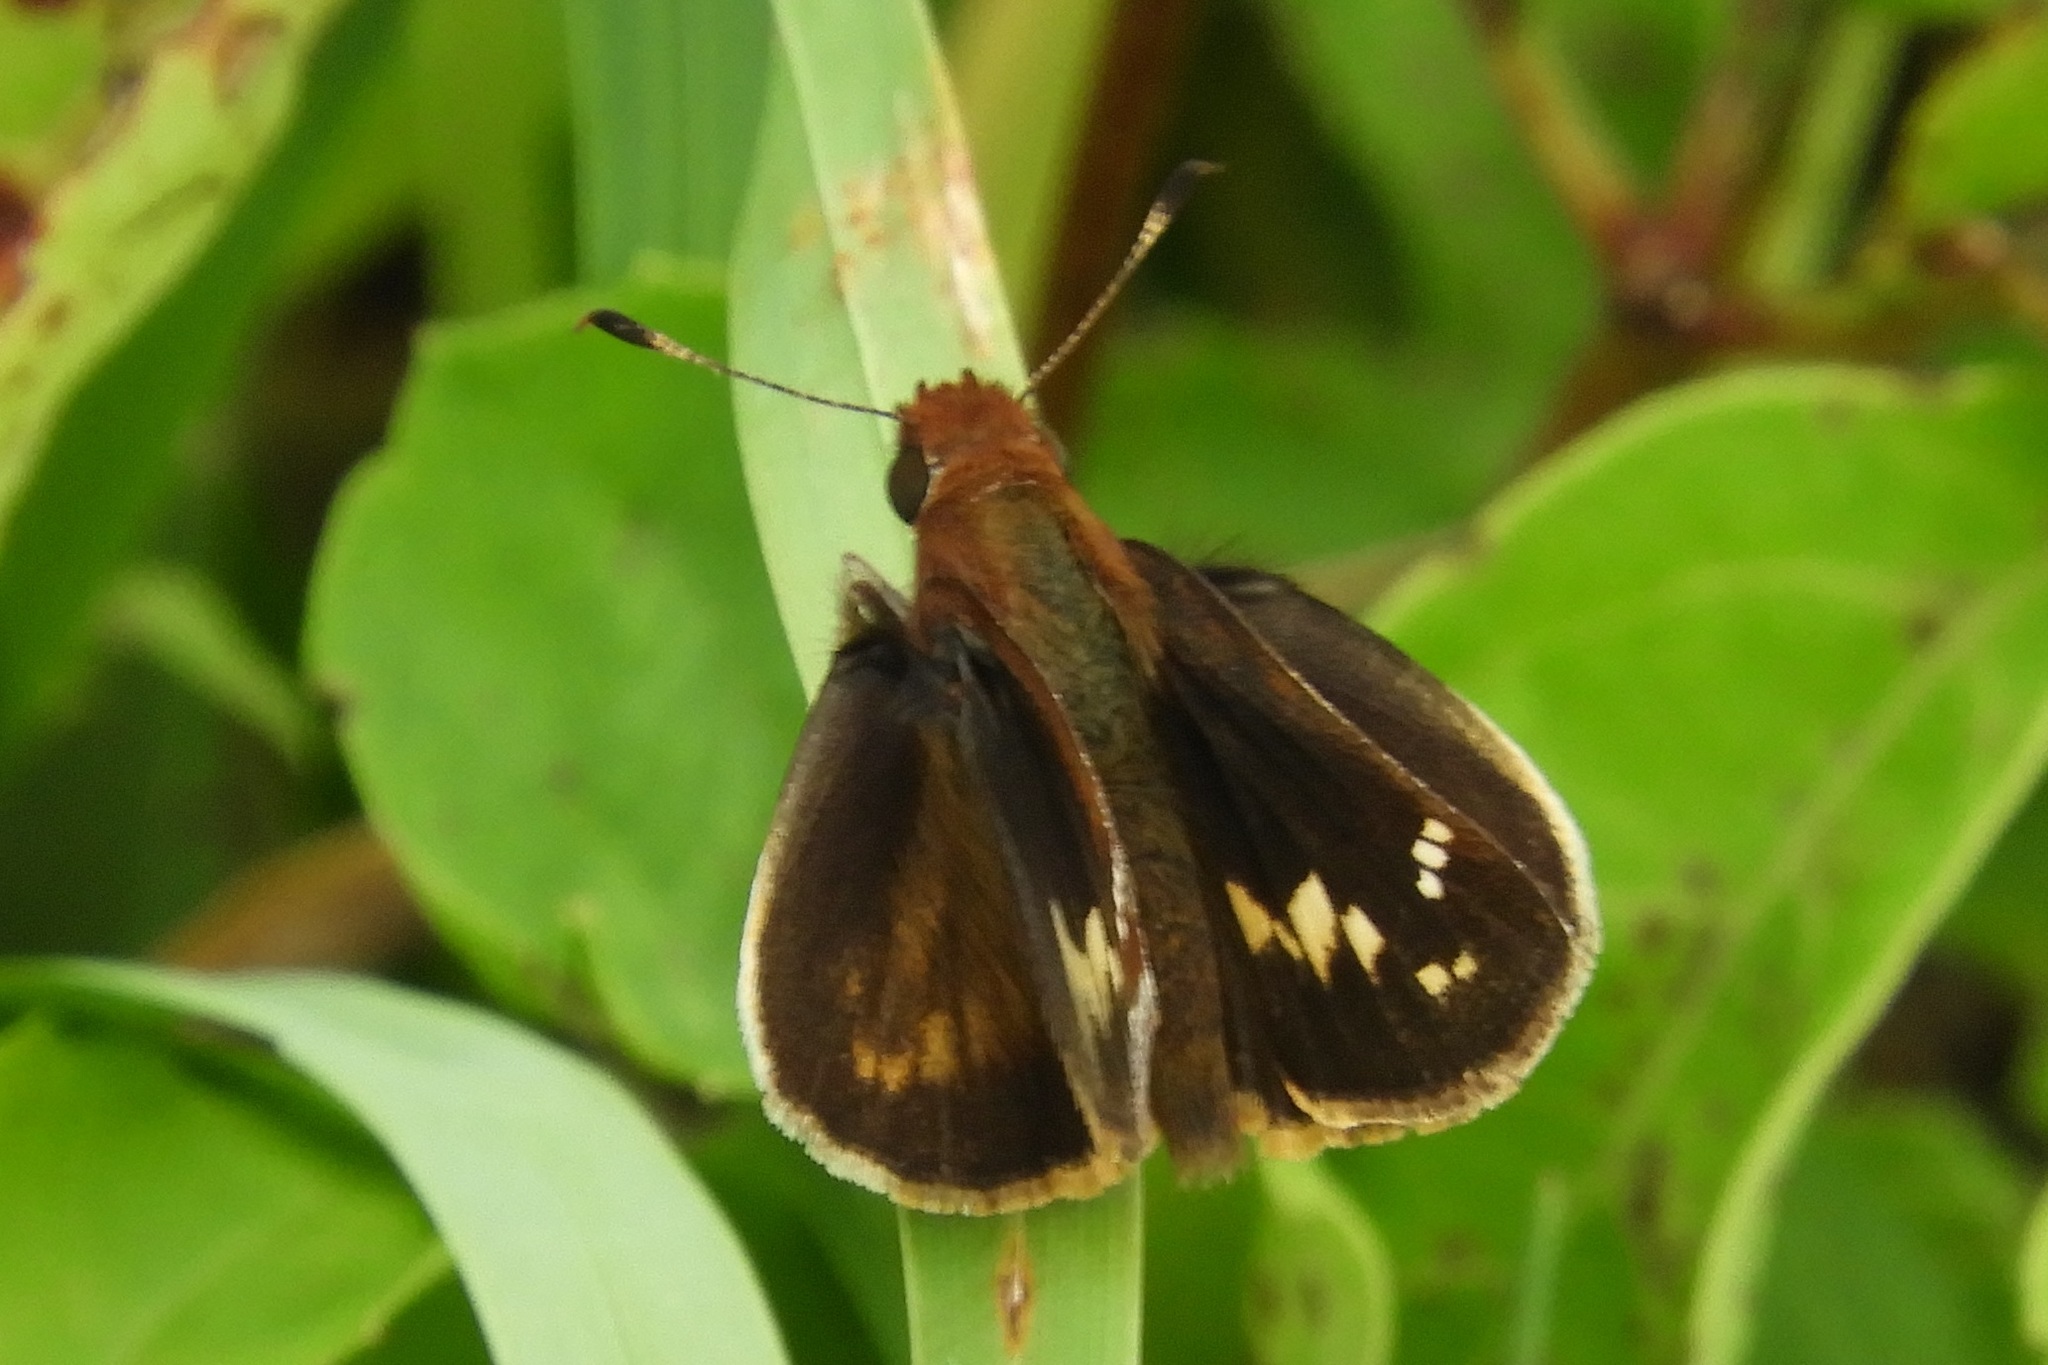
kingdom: Animalia
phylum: Arthropoda
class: Insecta
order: Lepidoptera
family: Hesperiidae
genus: Lon
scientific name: Lon zabulon
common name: Zabulon skipper
